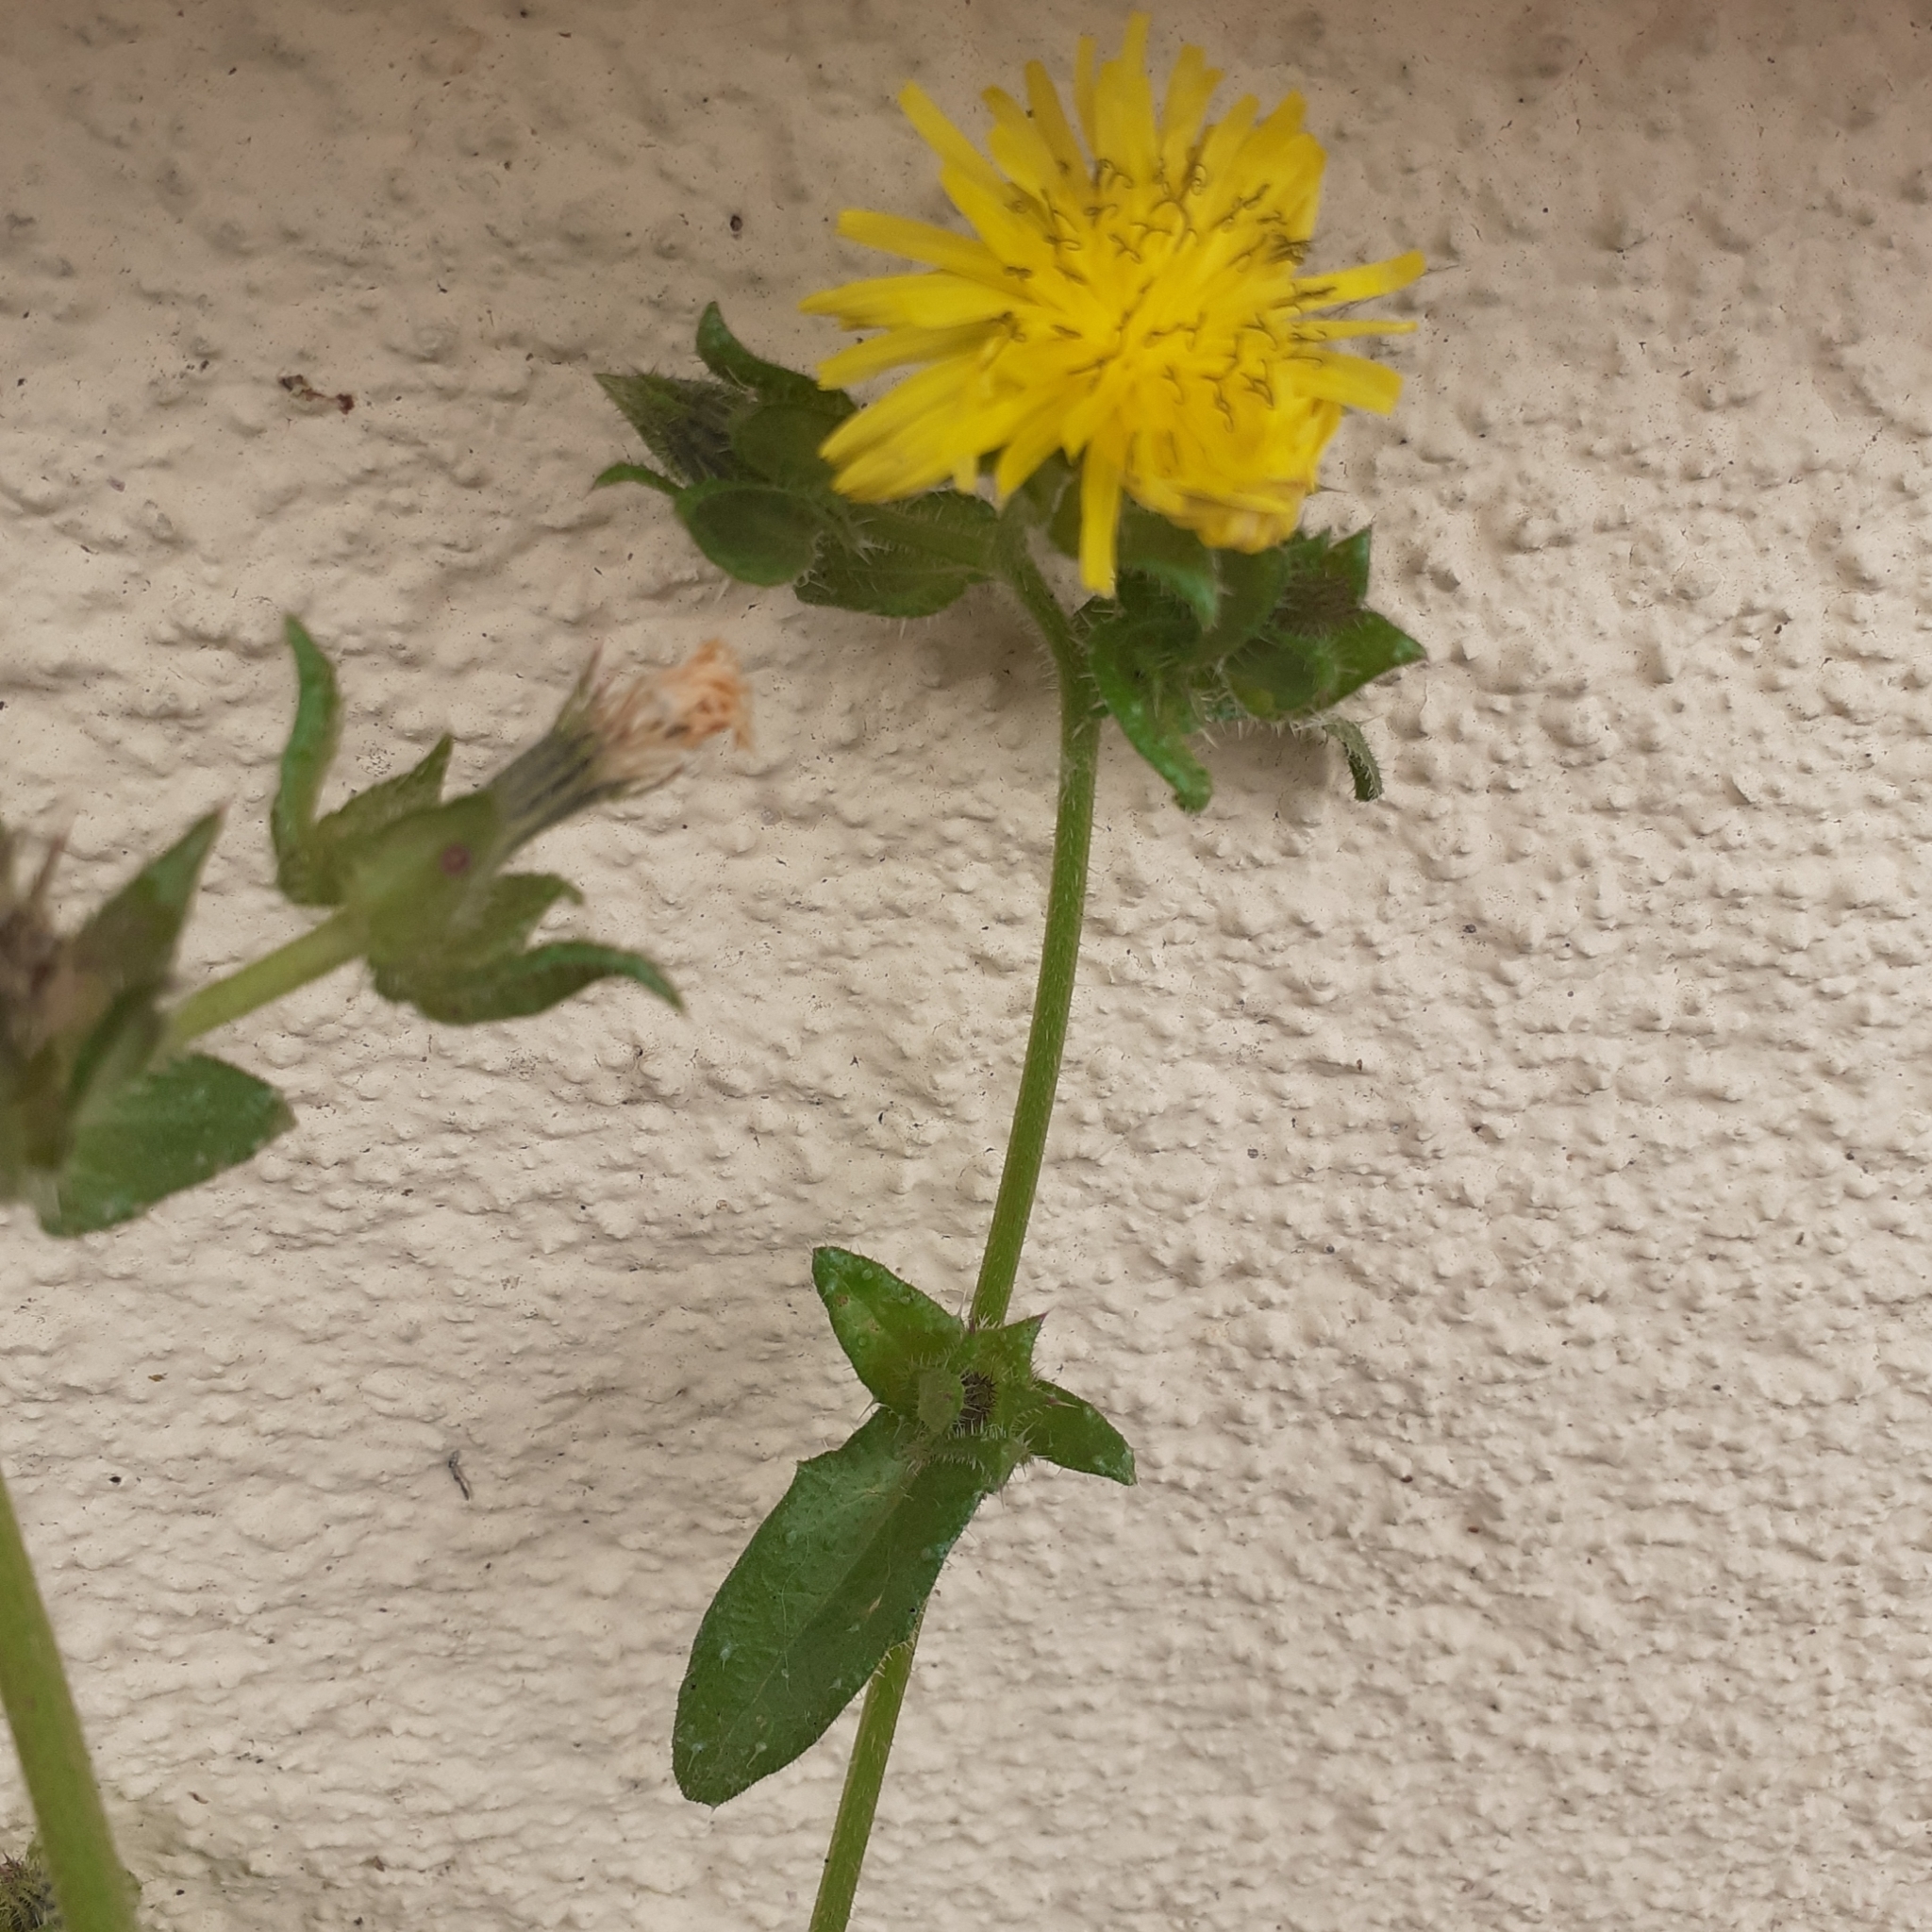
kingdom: Plantae
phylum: Tracheophyta
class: Magnoliopsida
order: Asterales
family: Asteraceae
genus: Helminthotheca
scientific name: Helminthotheca echioides
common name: Ox-tongue
